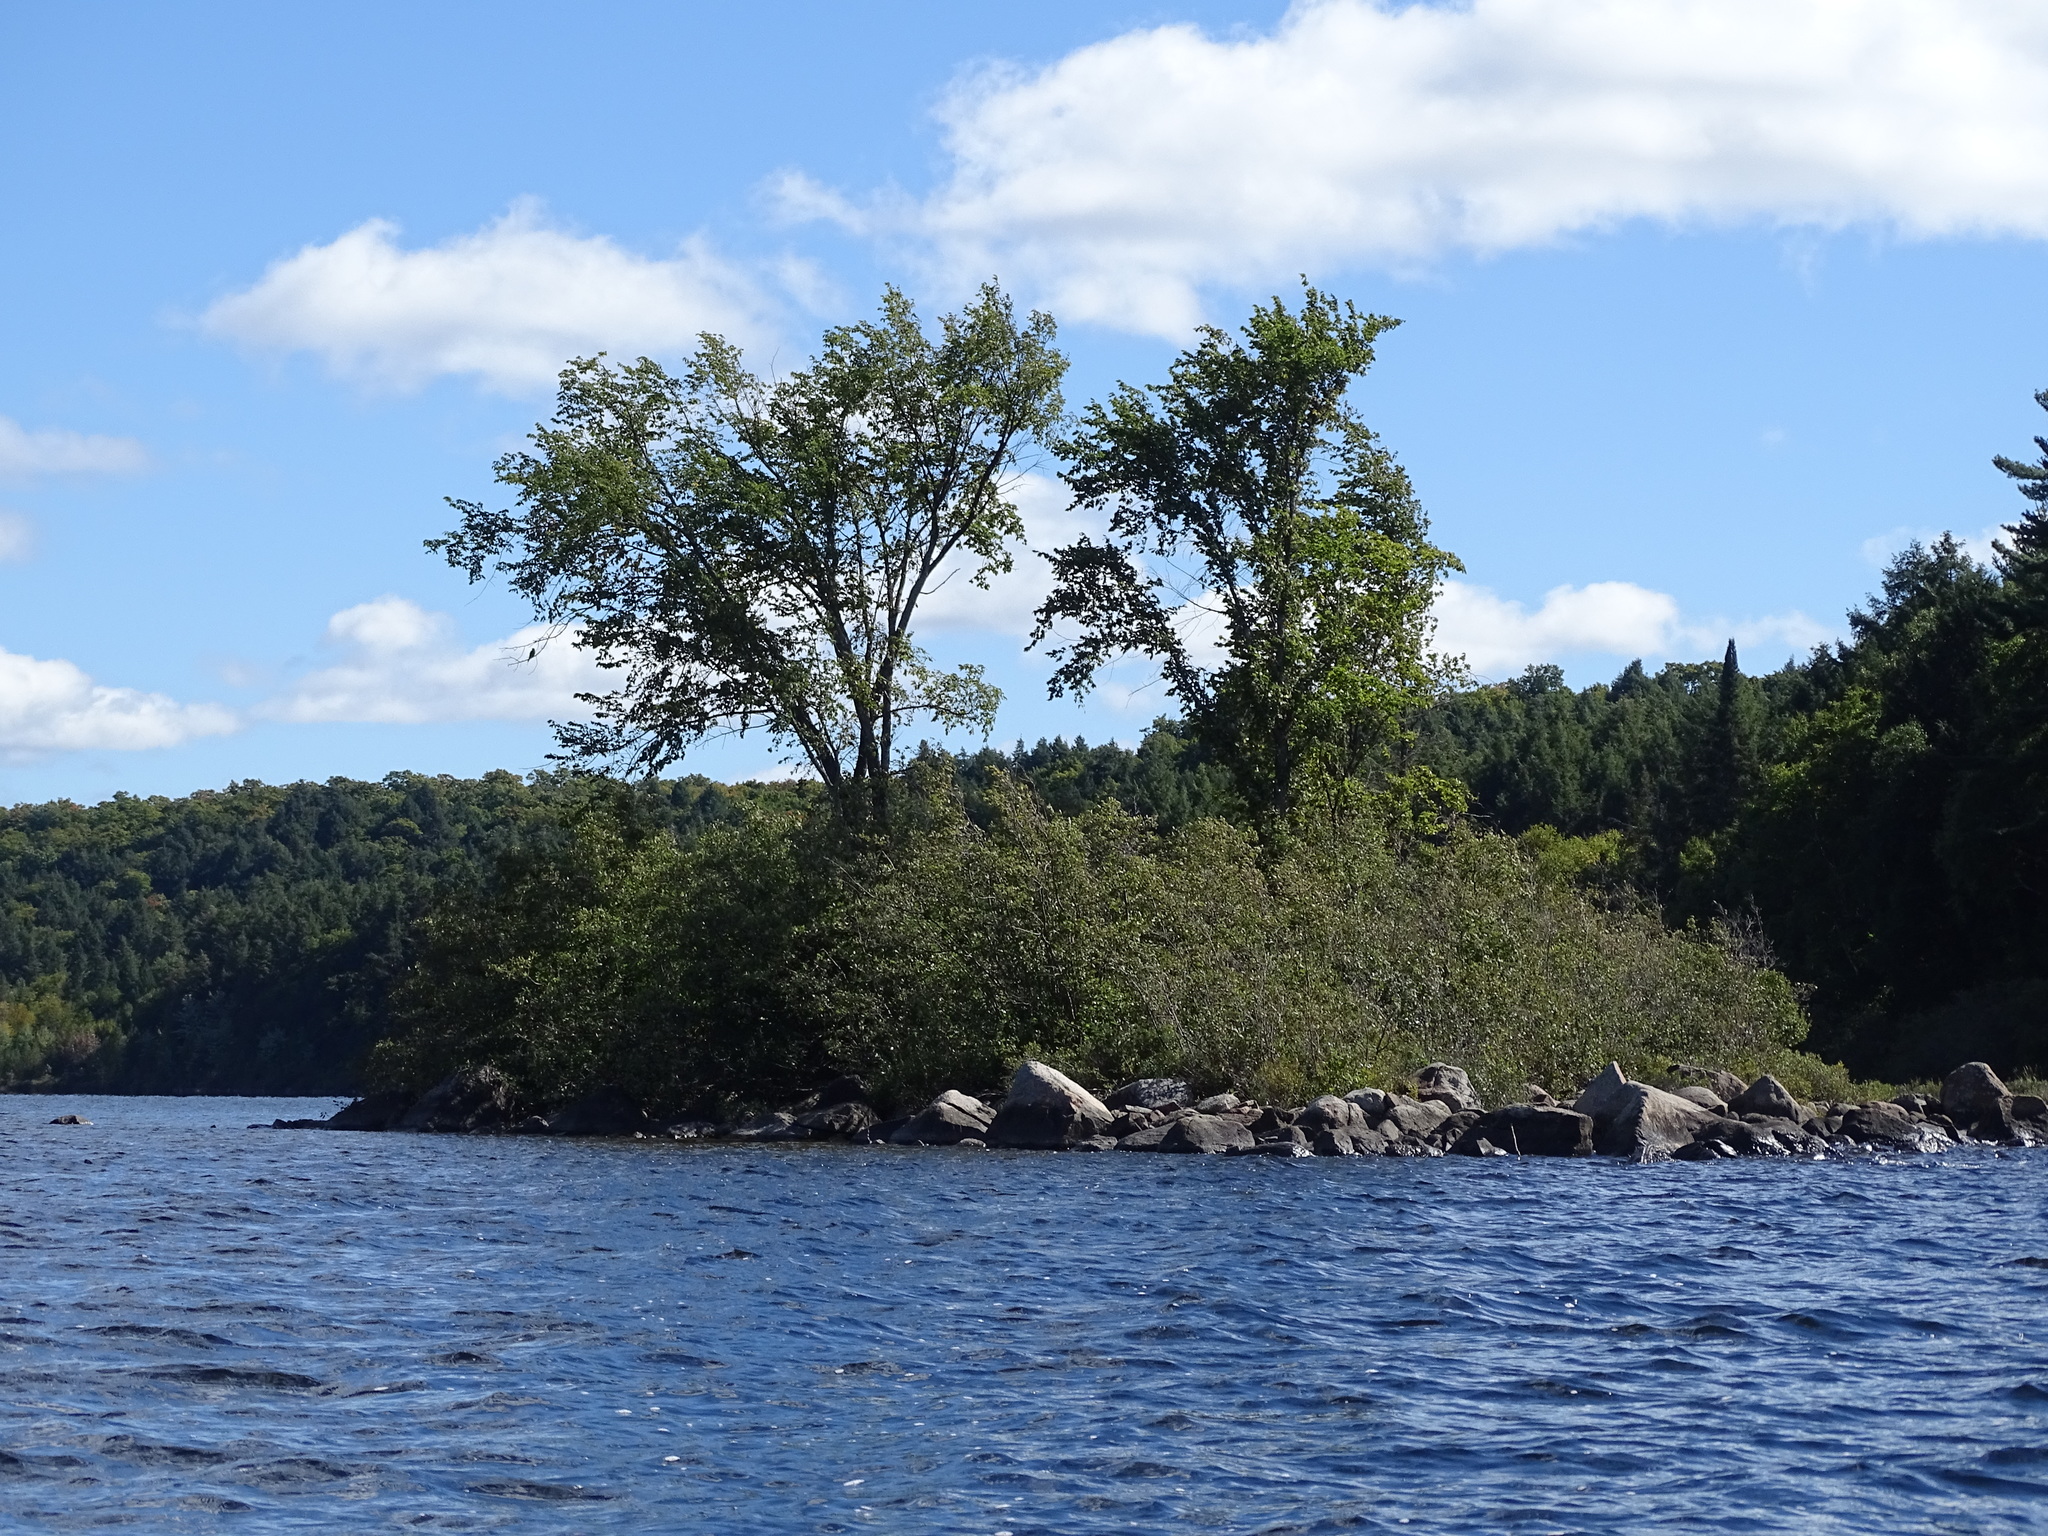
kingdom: Plantae
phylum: Tracheophyta
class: Magnoliopsida
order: Rosales
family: Ulmaceae
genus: Ulmus
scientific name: Ulmus americana
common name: American elm
